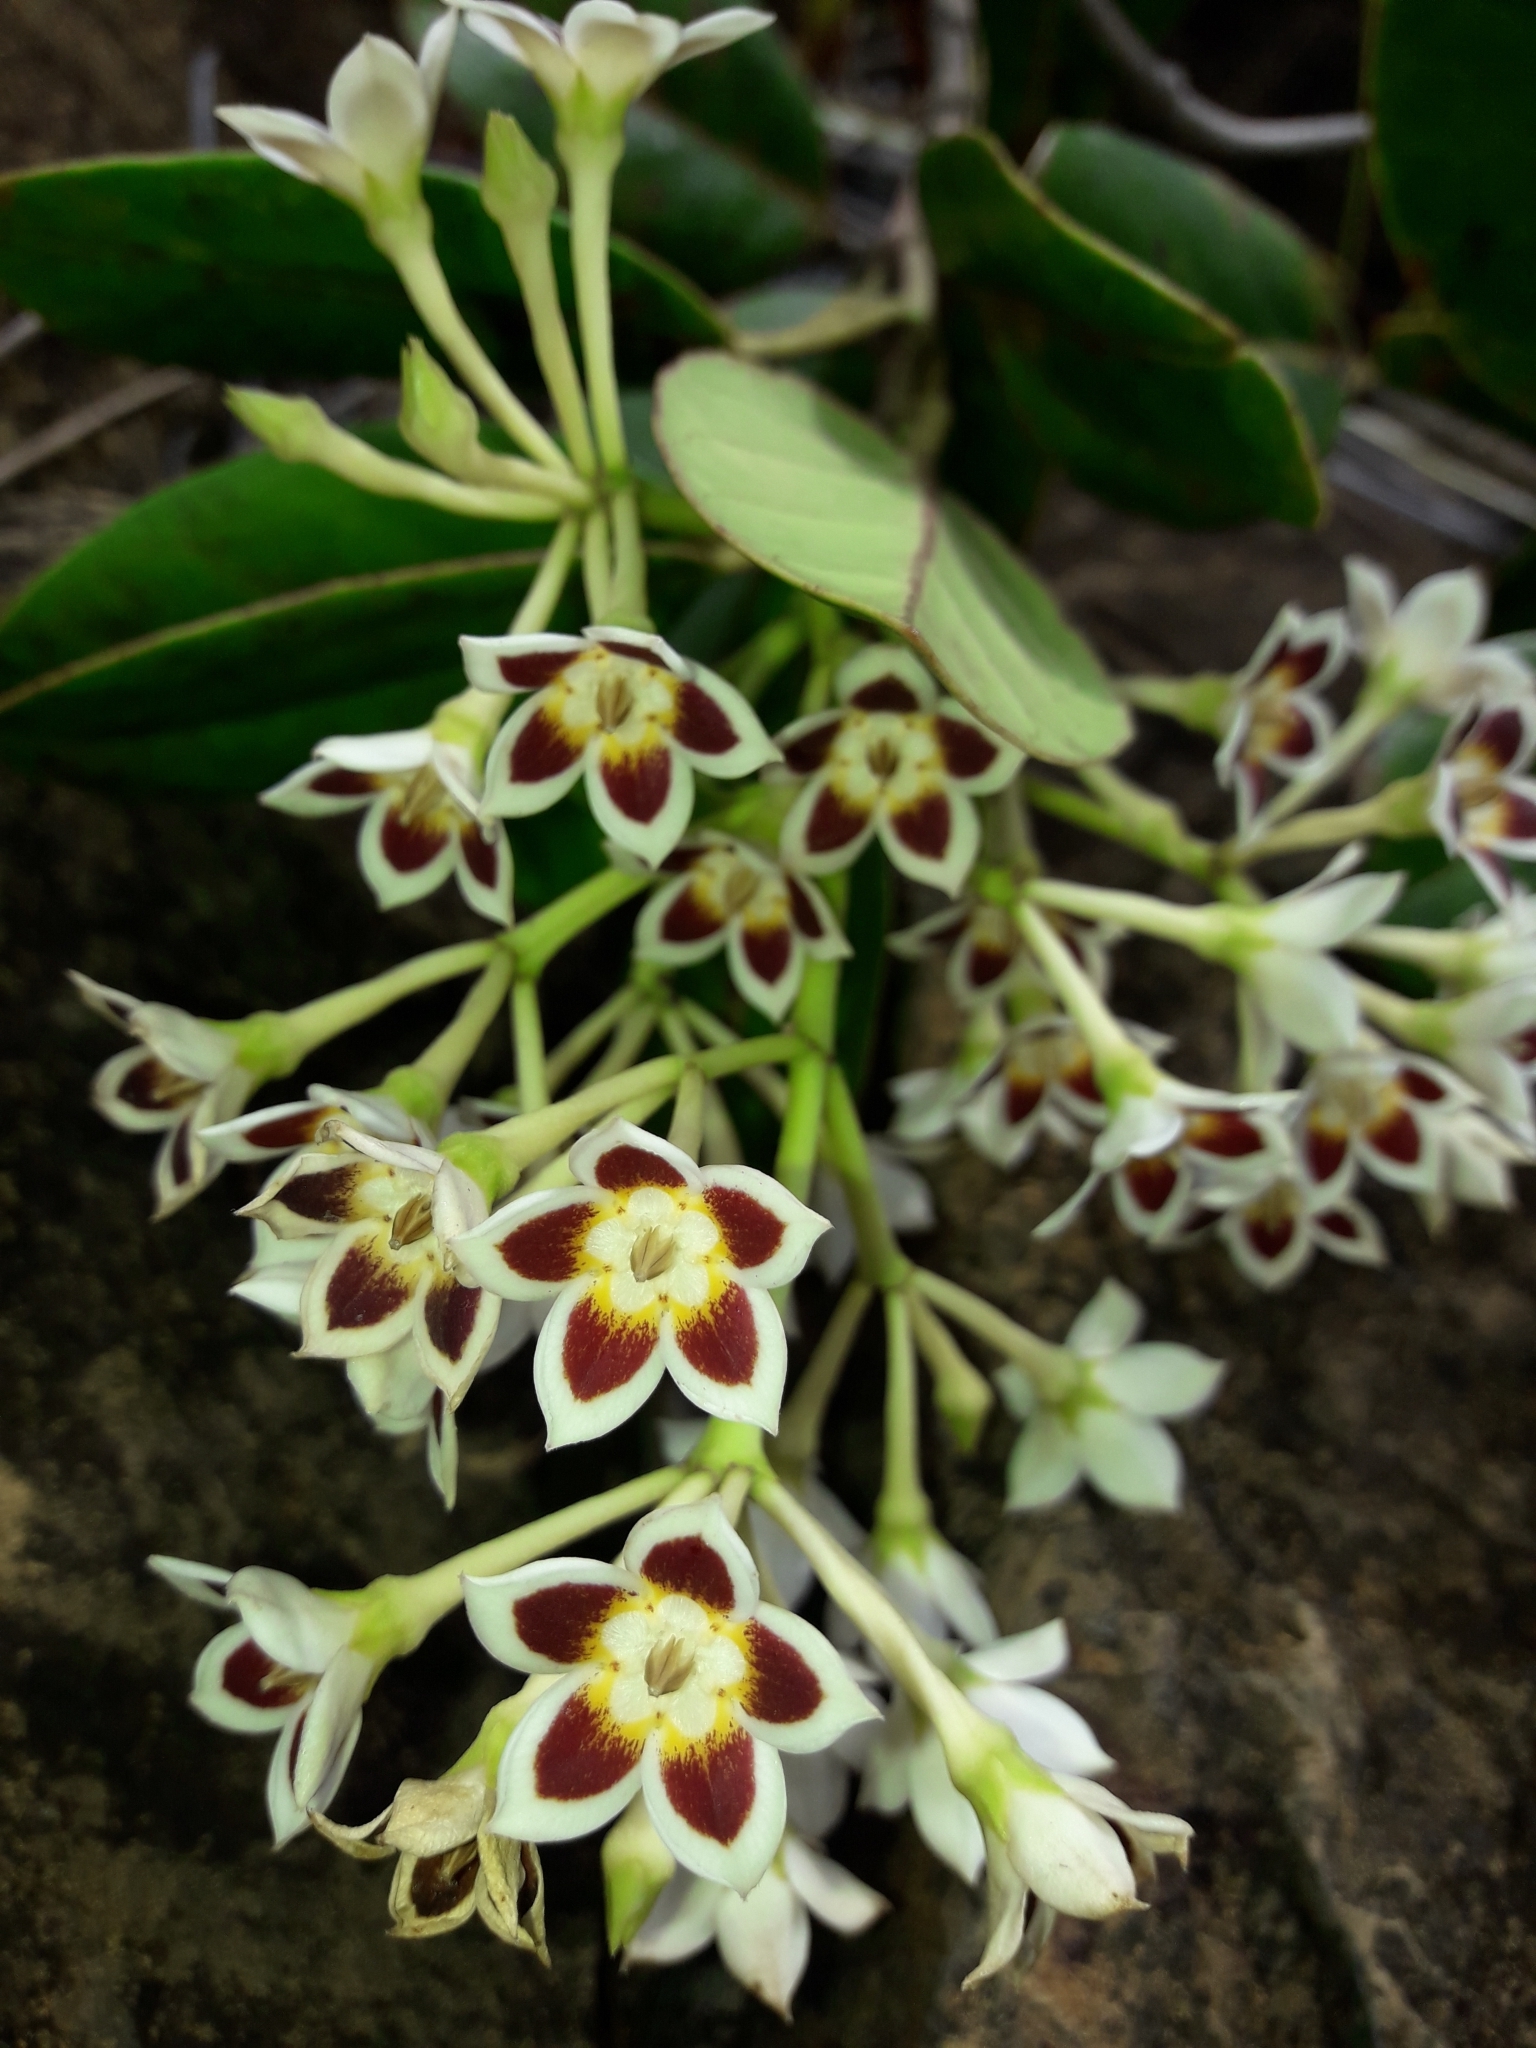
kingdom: Plantae
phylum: Tracheophyta
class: Magnoliopsida
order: Gentianales
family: Apocynaceae
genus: Artia
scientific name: Artia balansae
